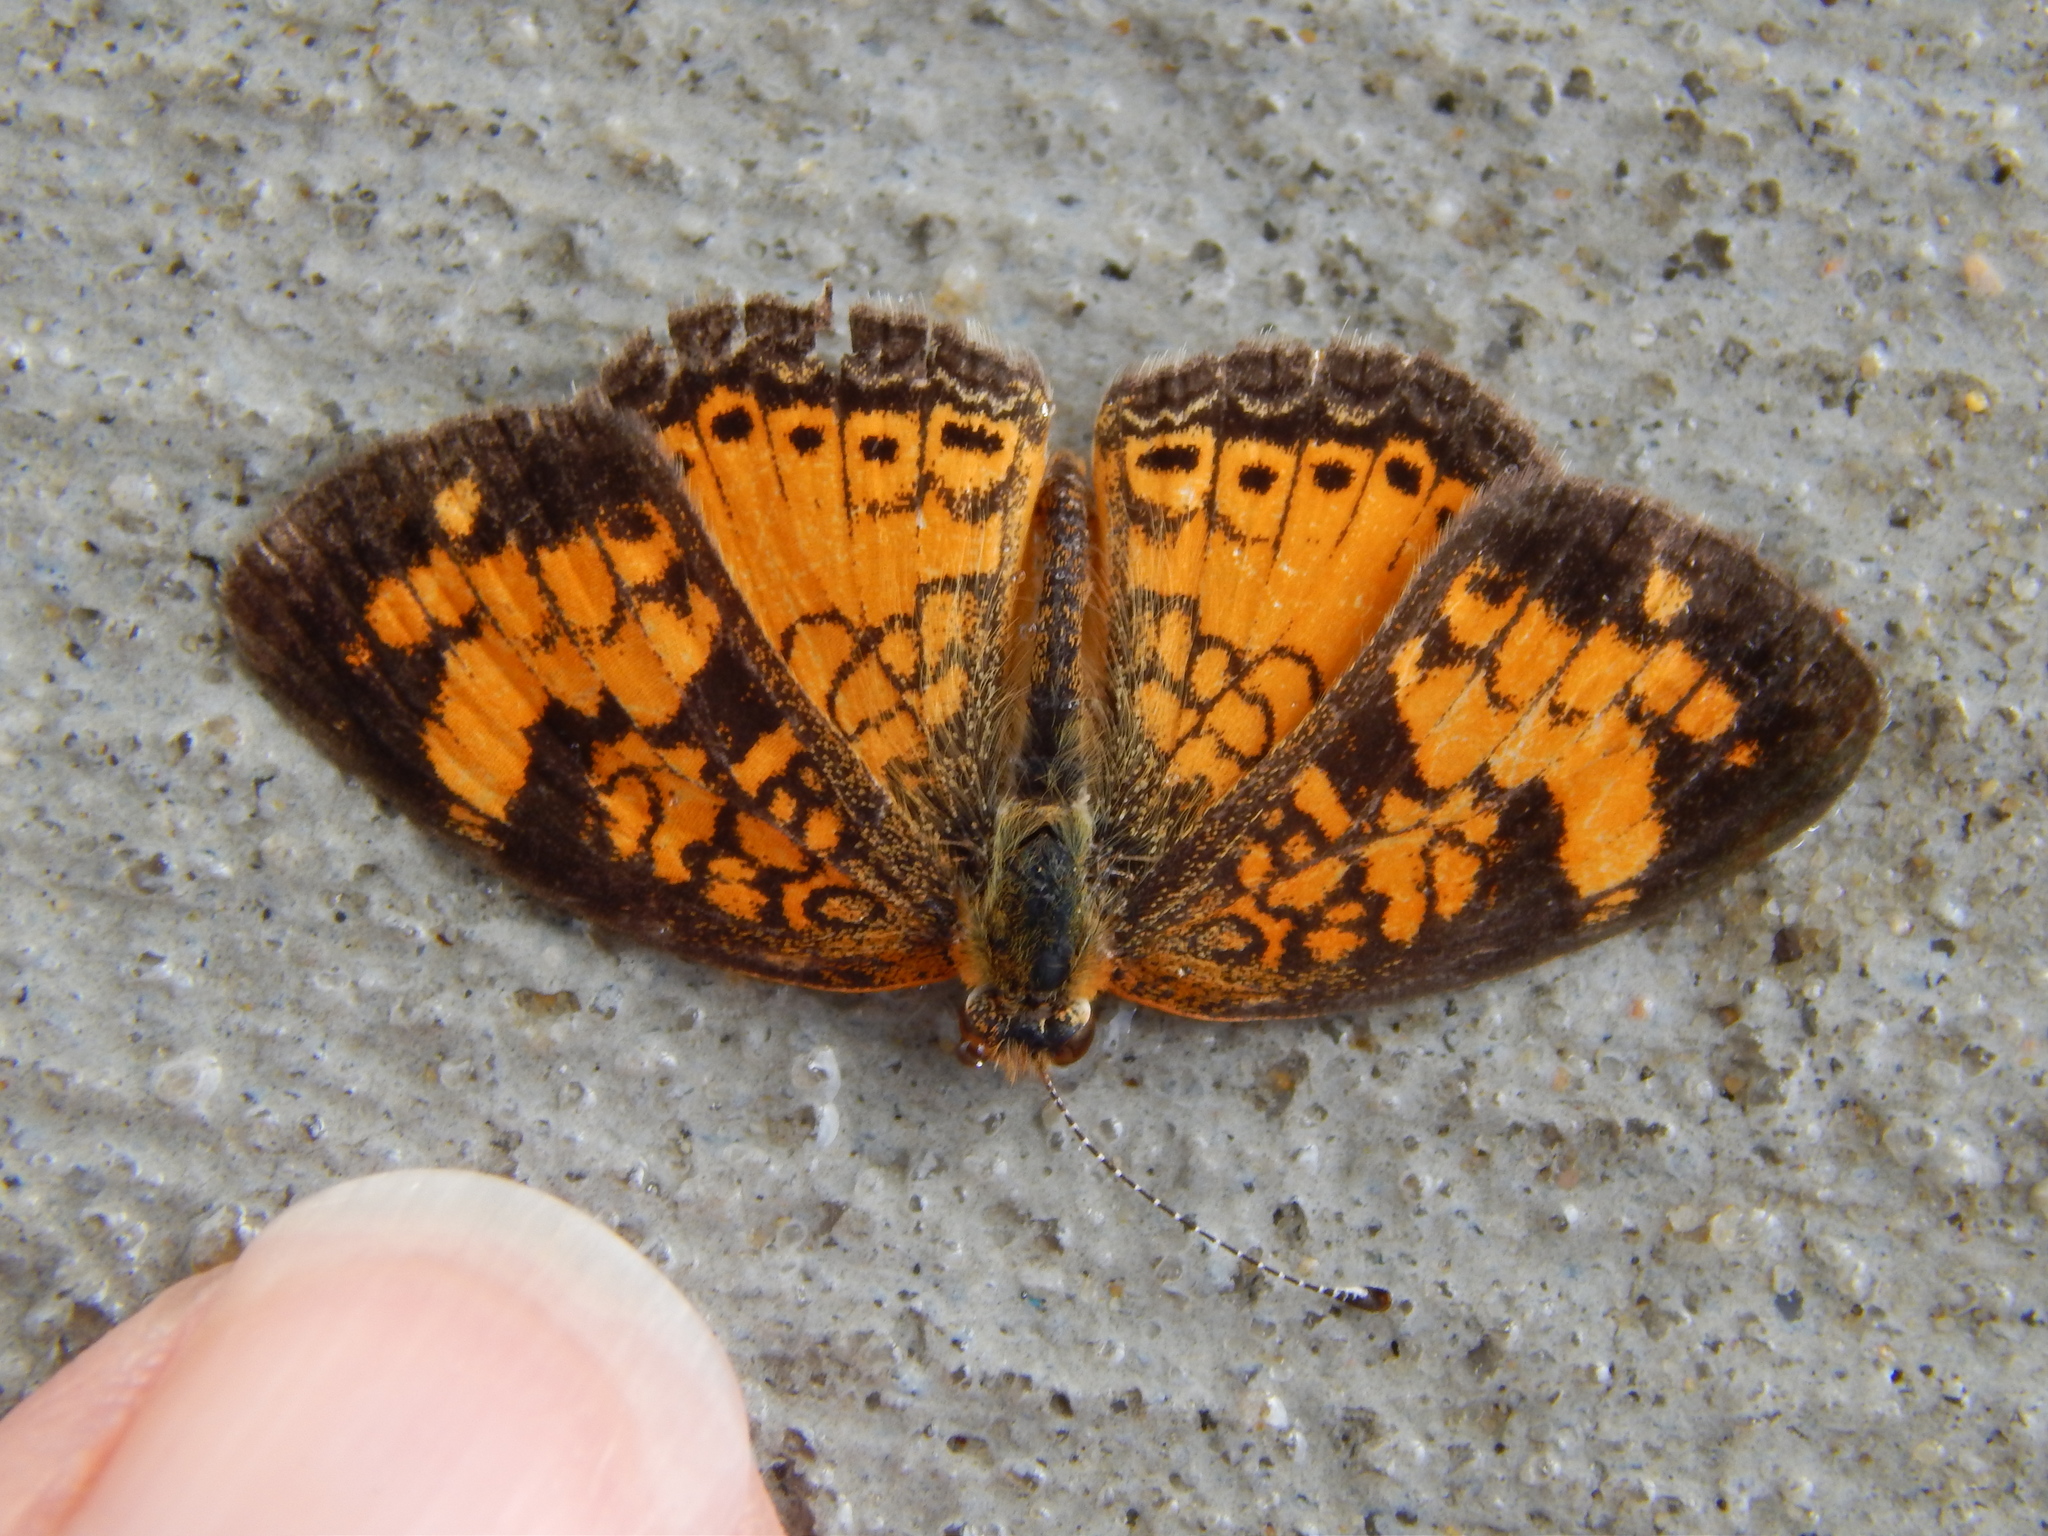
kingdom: Animalia
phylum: Arthropoda
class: Insecta
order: Lepidoptera
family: Nymphalidae
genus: Phyciodes
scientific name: Phyciodes tharos
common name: Pearl crescent
